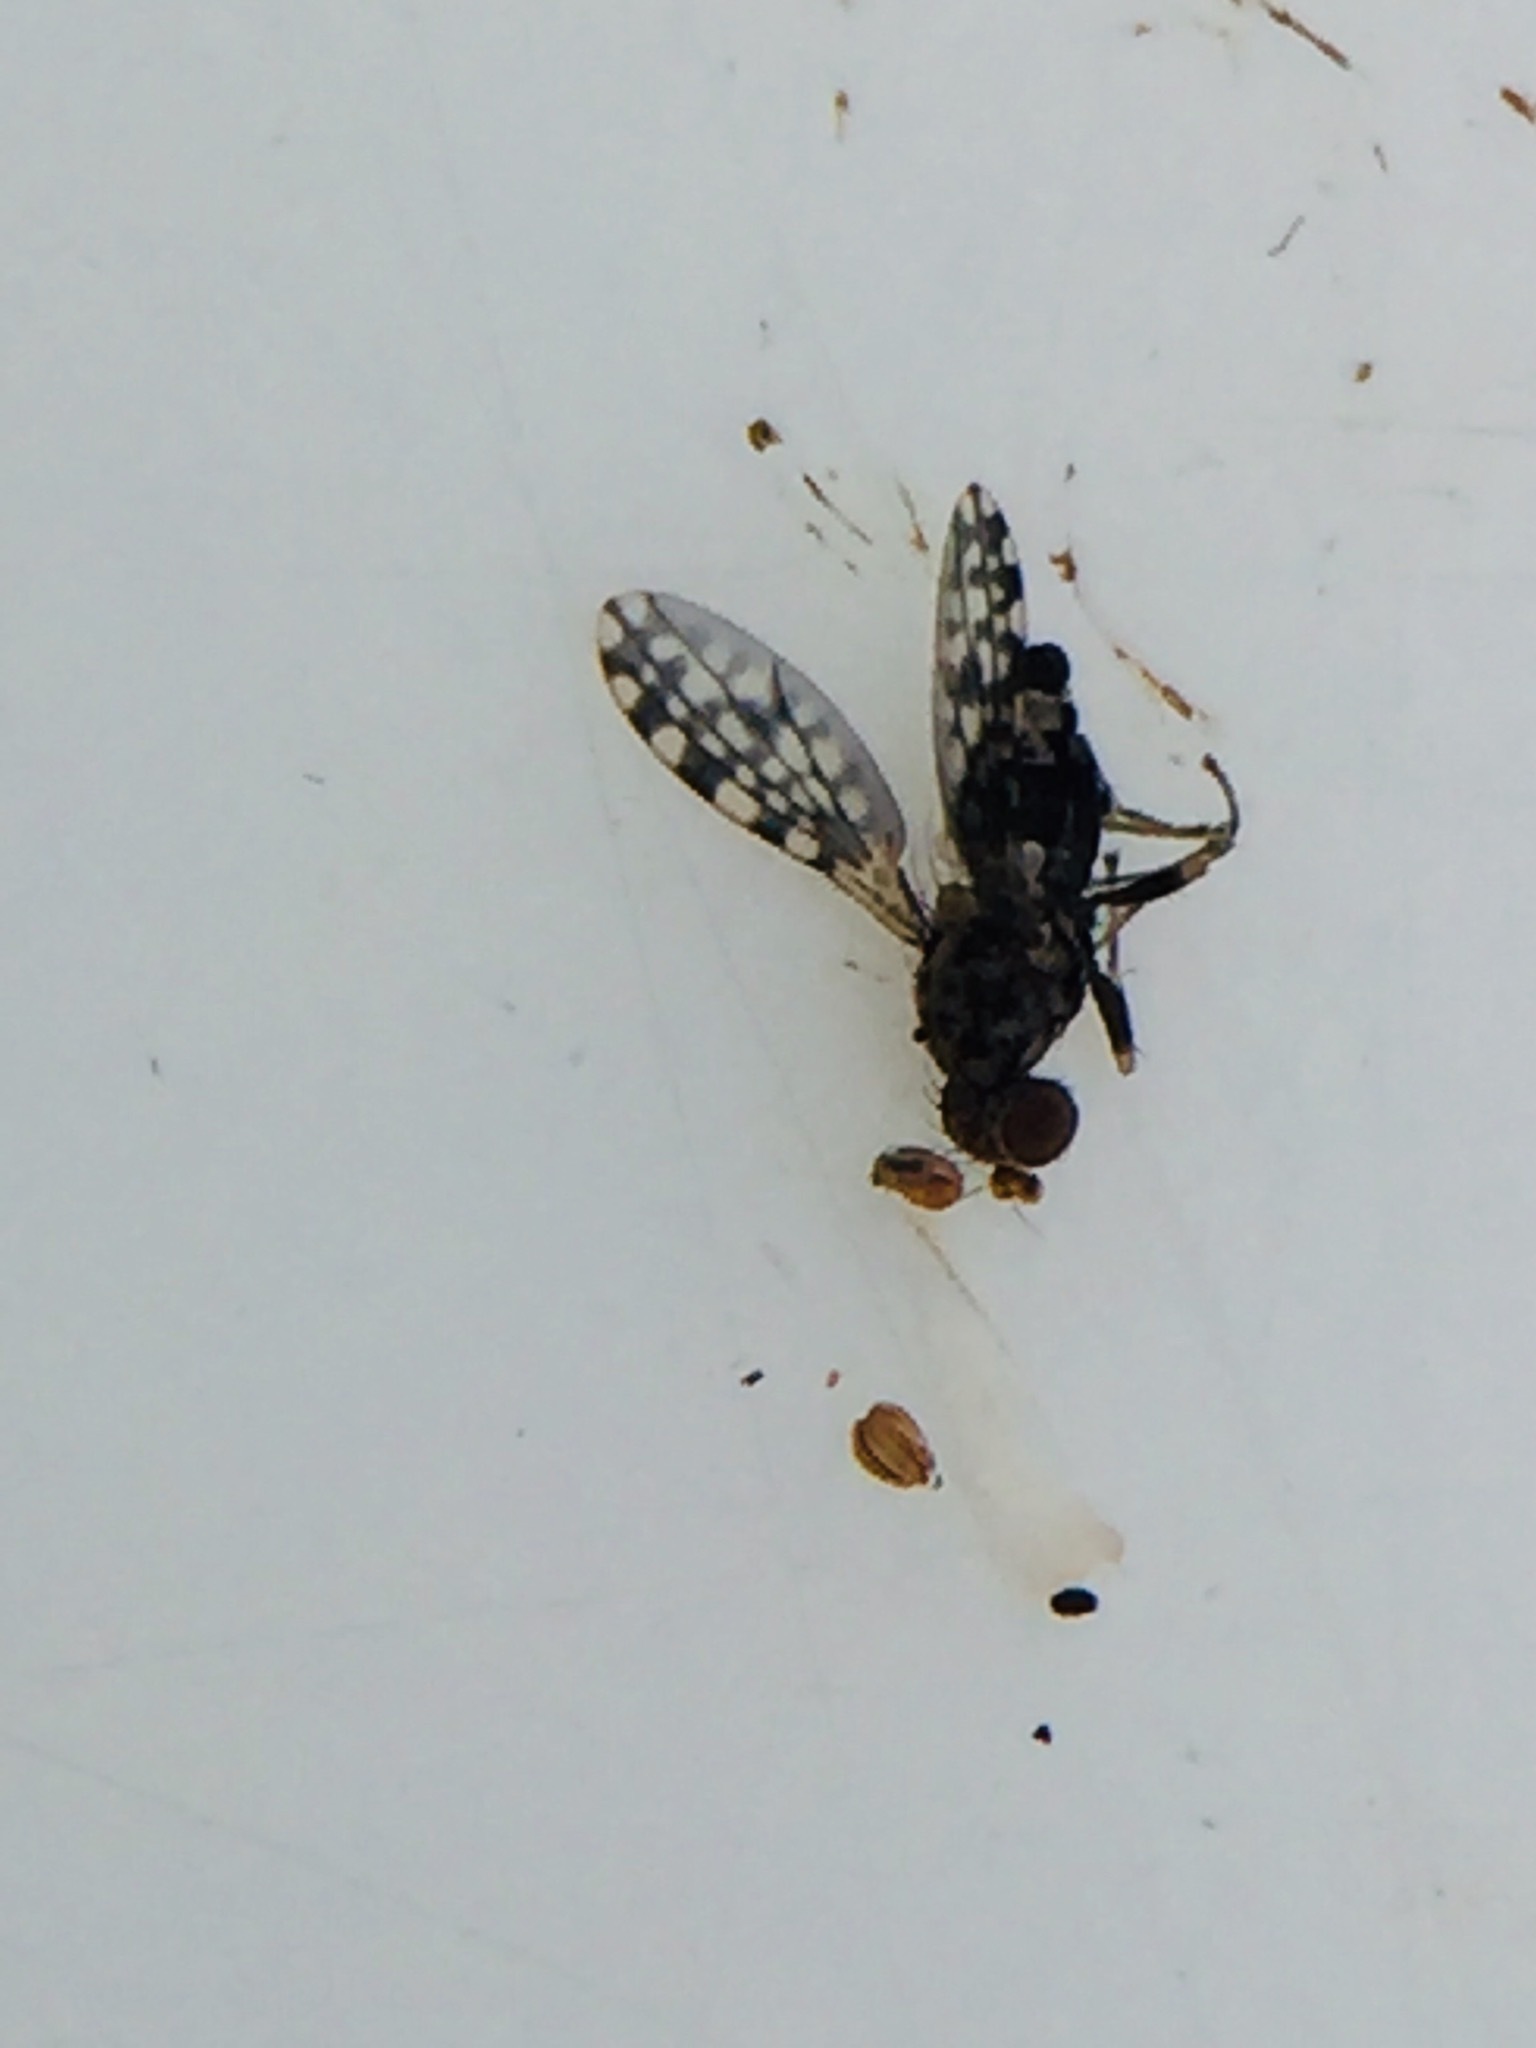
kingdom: Animalia
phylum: Arthropoda
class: Insecta
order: Diptera
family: Heleomyzidae
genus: Xeneura
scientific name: Xeneura picata
